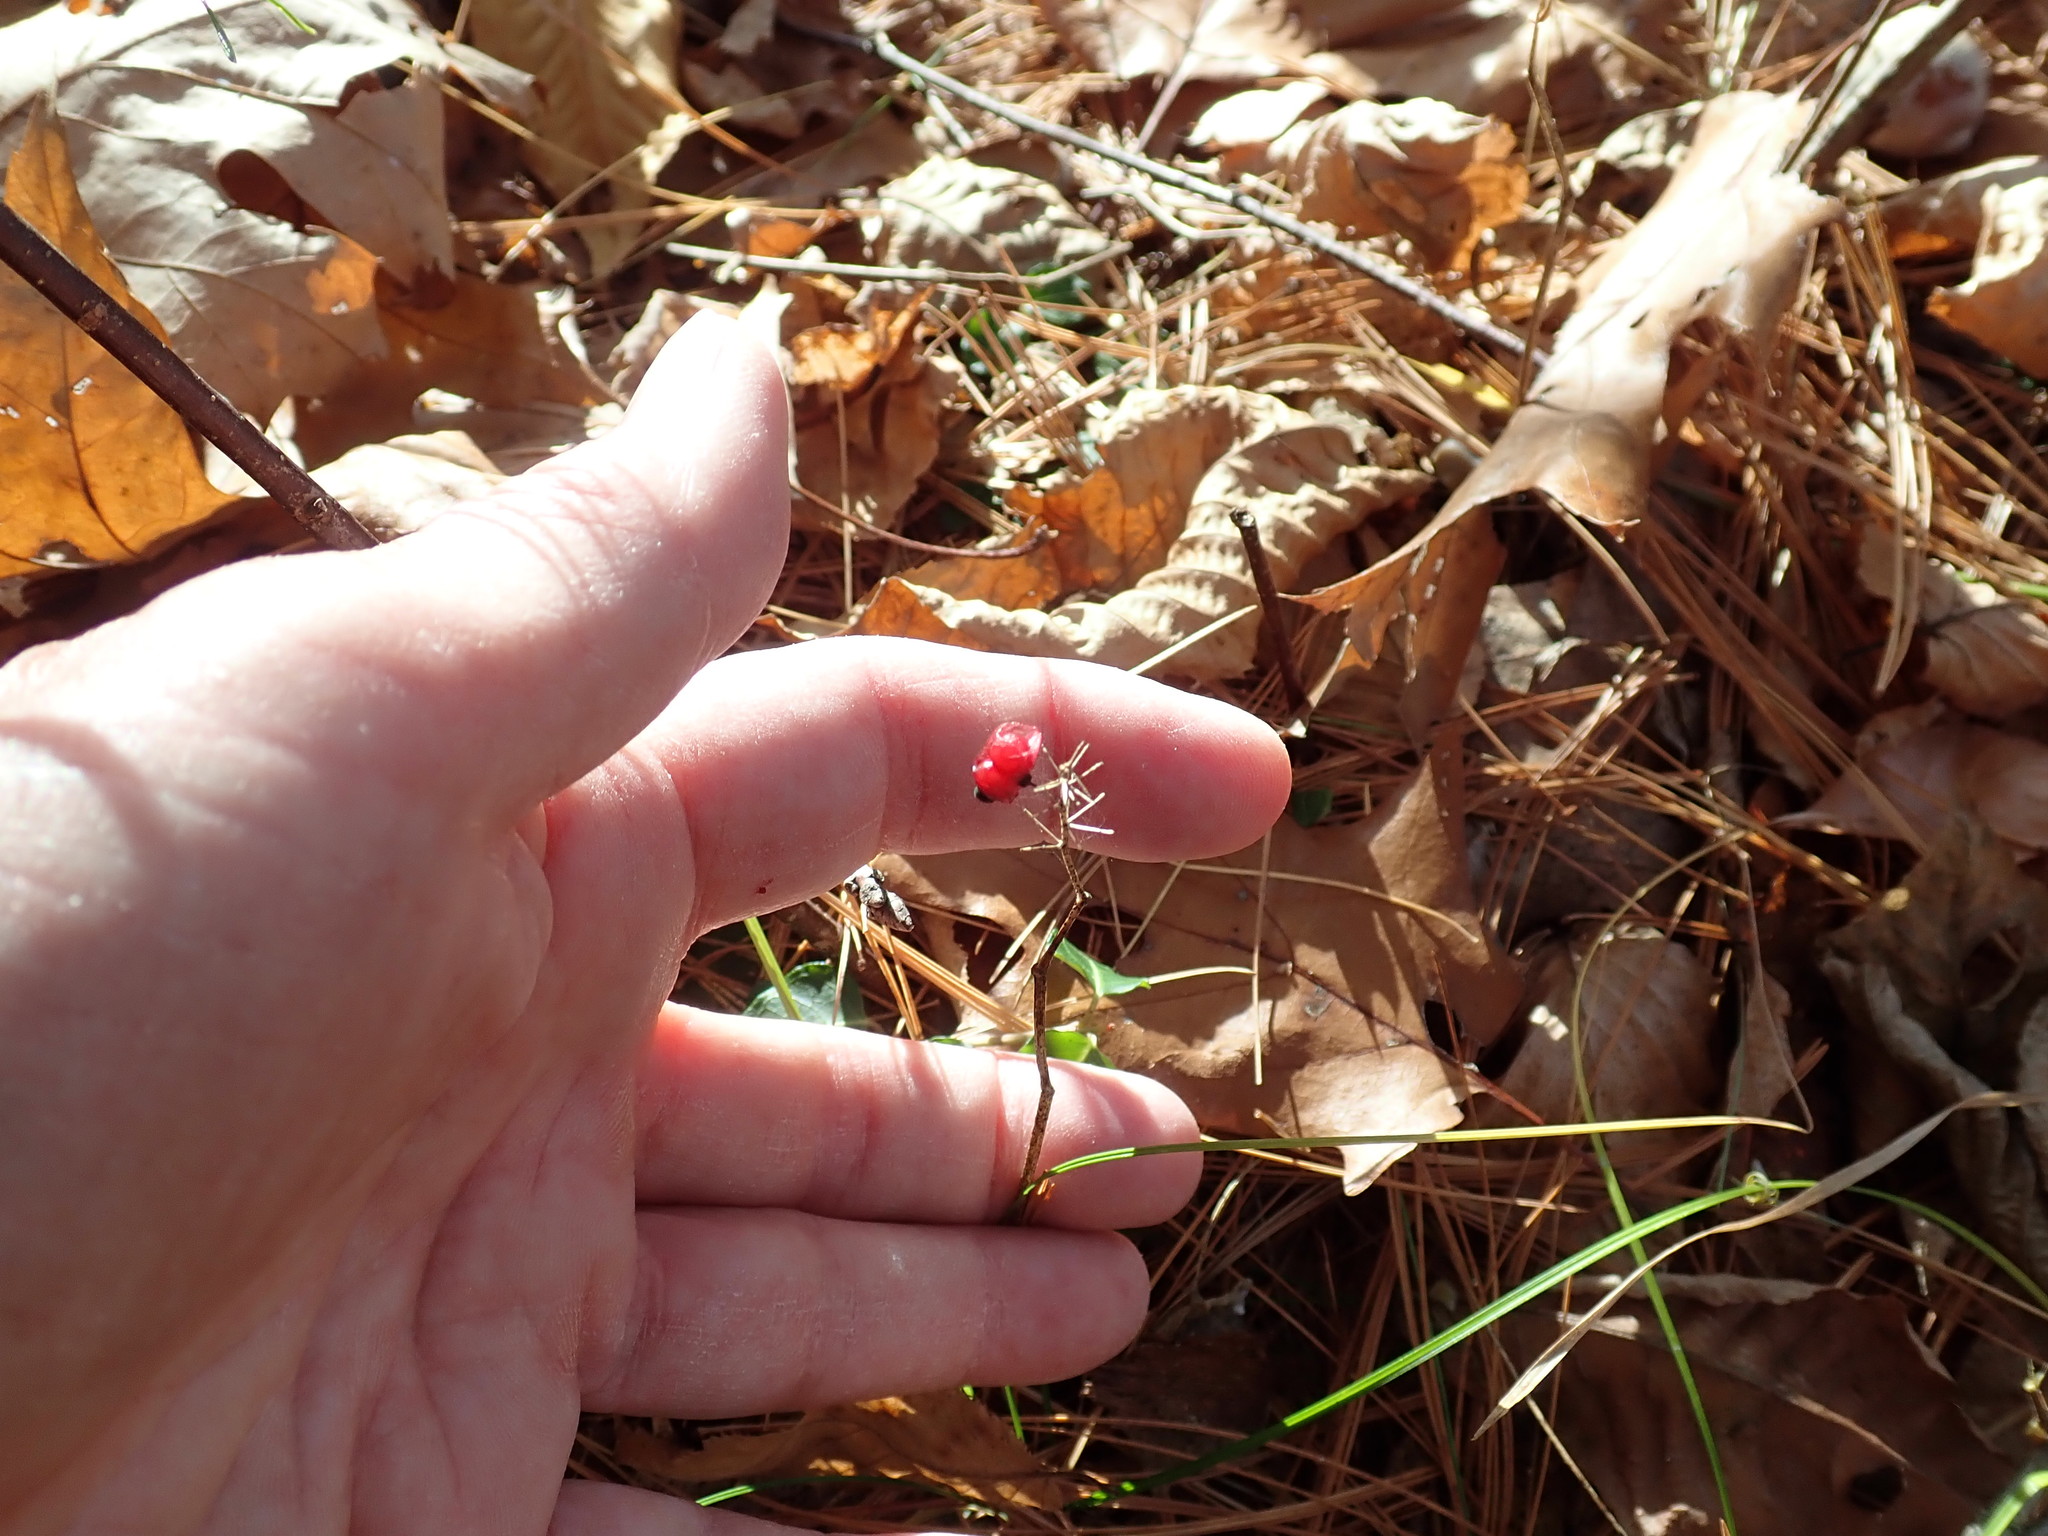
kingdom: Plantae
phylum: Tracheophyta
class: Liliopsida
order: Asparagales
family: Asparagaceae
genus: Maianthemum
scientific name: Maianthemum canadense
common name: False lily-of-the-valley
